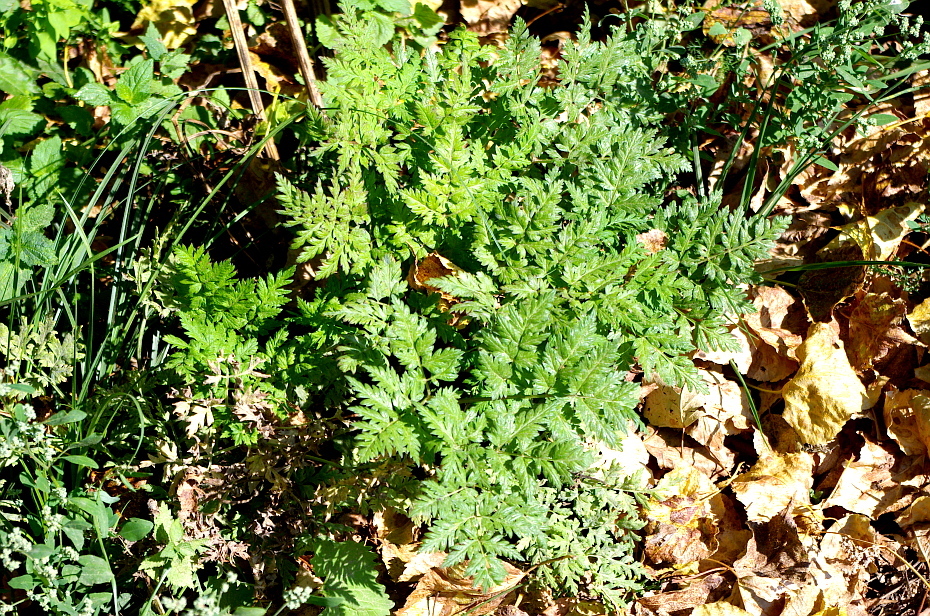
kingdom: Plantae
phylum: Tracheophyta
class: Magnoliopsida
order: Apiales
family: Apiaceae
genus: Anthriscus
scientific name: Anthriscus sylvestris
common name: Cow parsley
